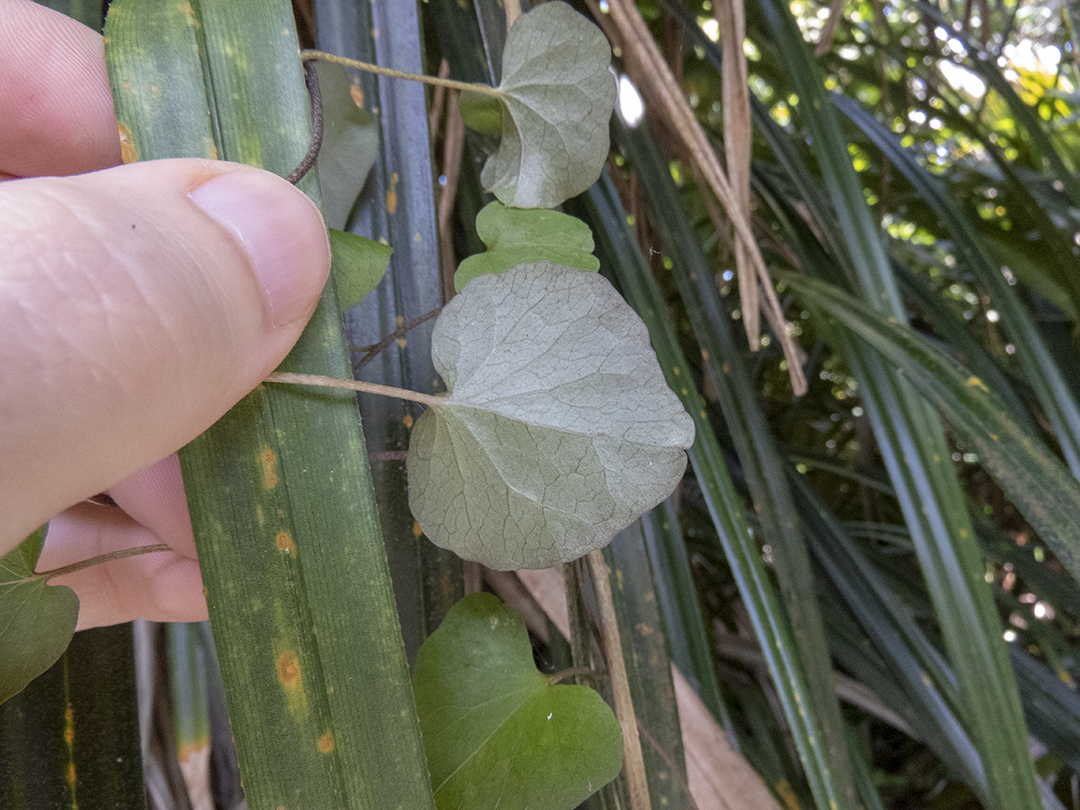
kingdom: Plantae
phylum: Tracheophyta
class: Magnoliopsida
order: Solanales
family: Convolvulaceae
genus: Calystegia
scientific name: Calystegia tuguriorum
